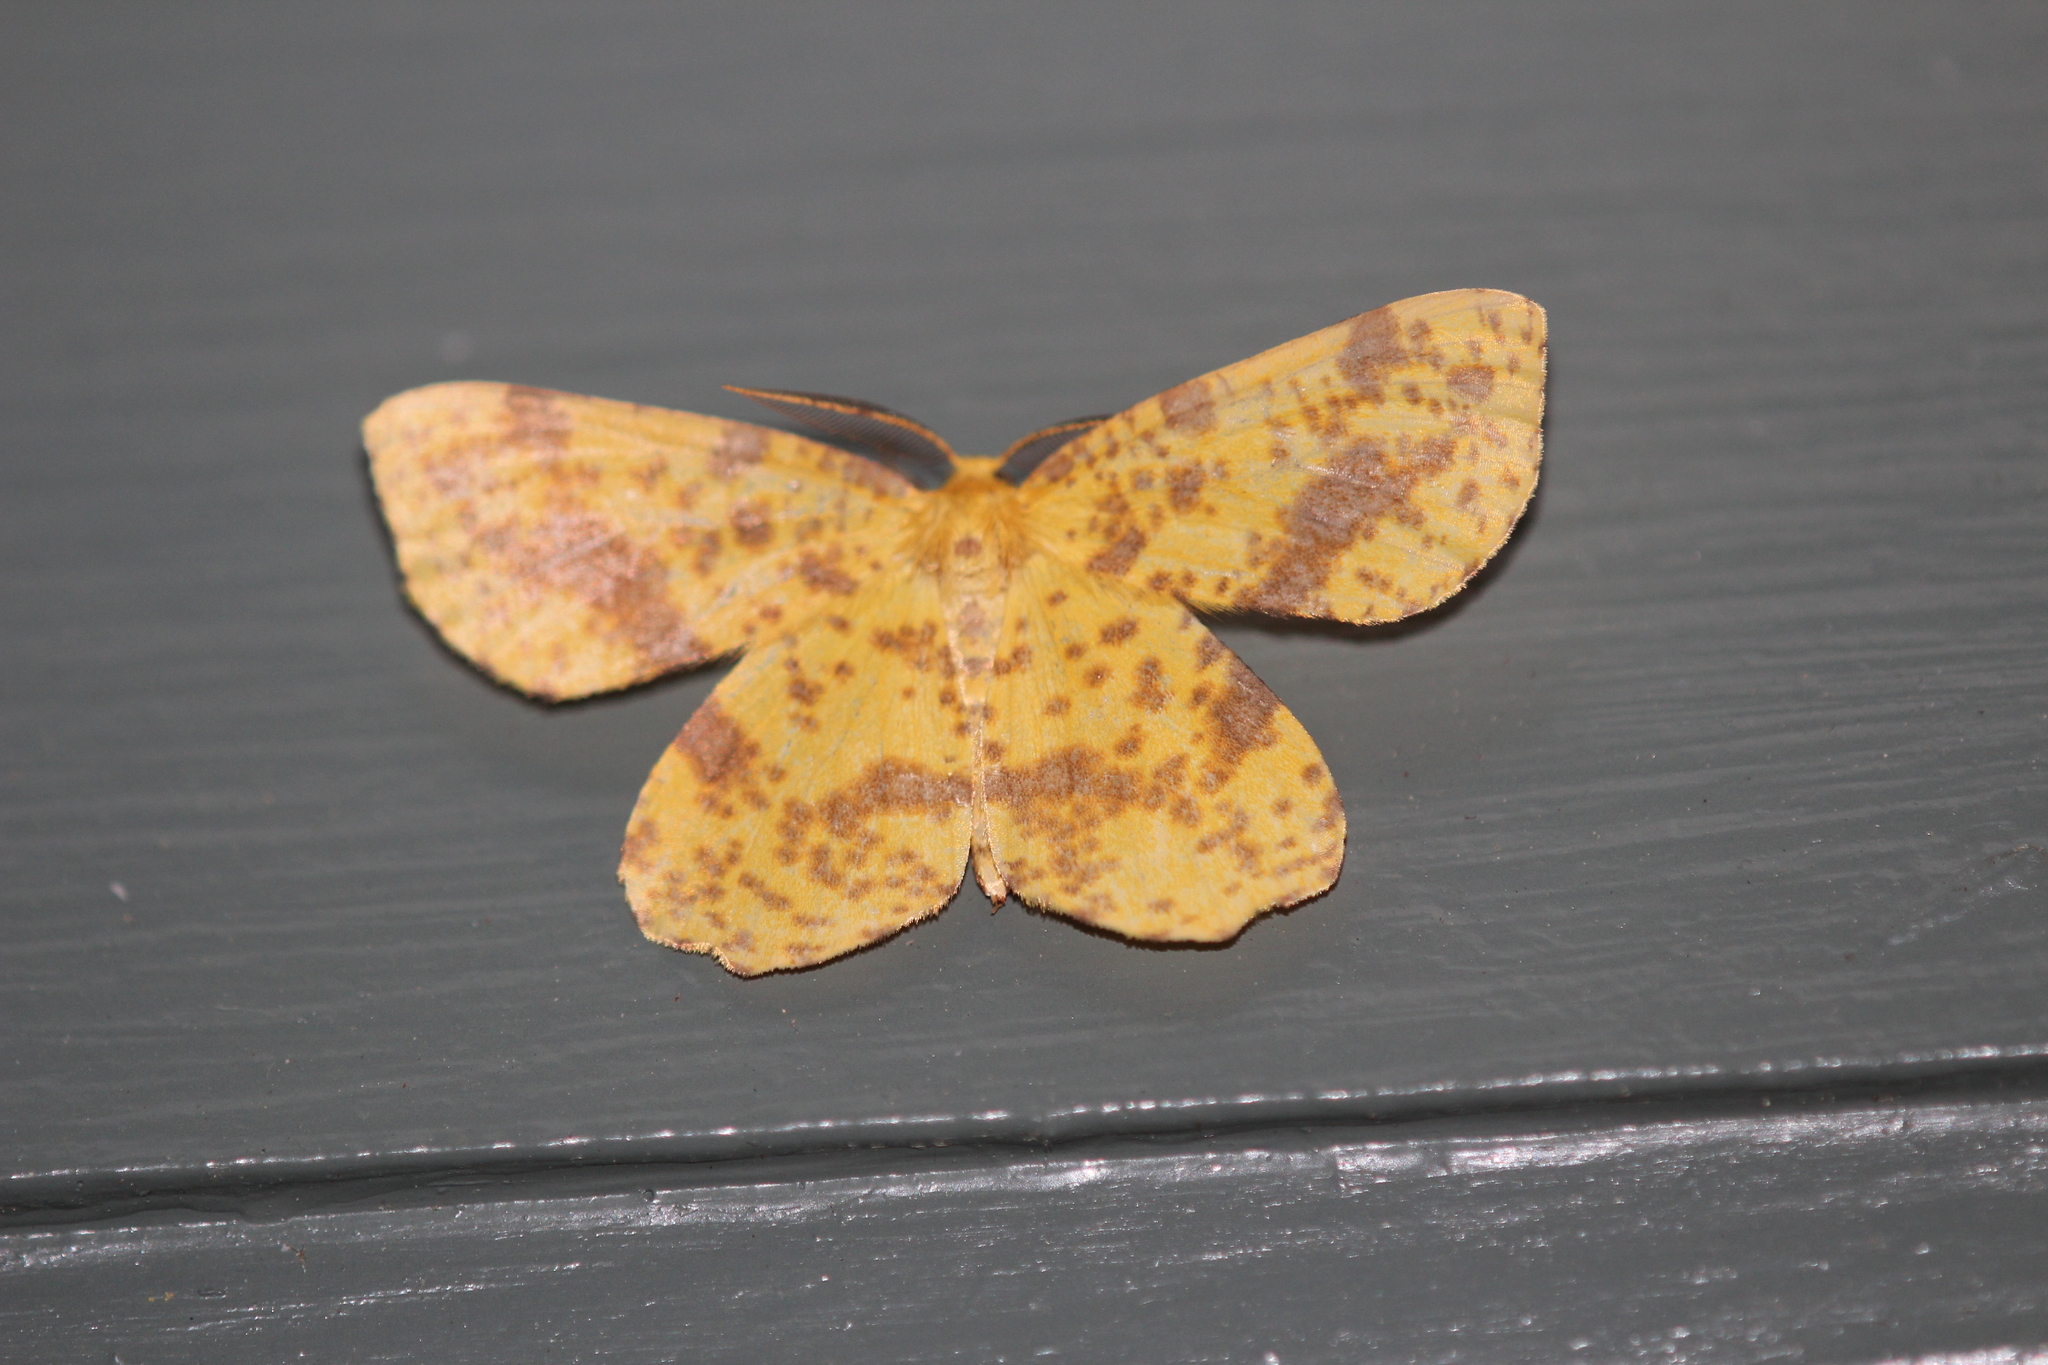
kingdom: Animalia
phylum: Arthropoda
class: Insecta
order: Lepidoptera
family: Geometridae
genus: Xanthotype
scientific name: Xanthotype
